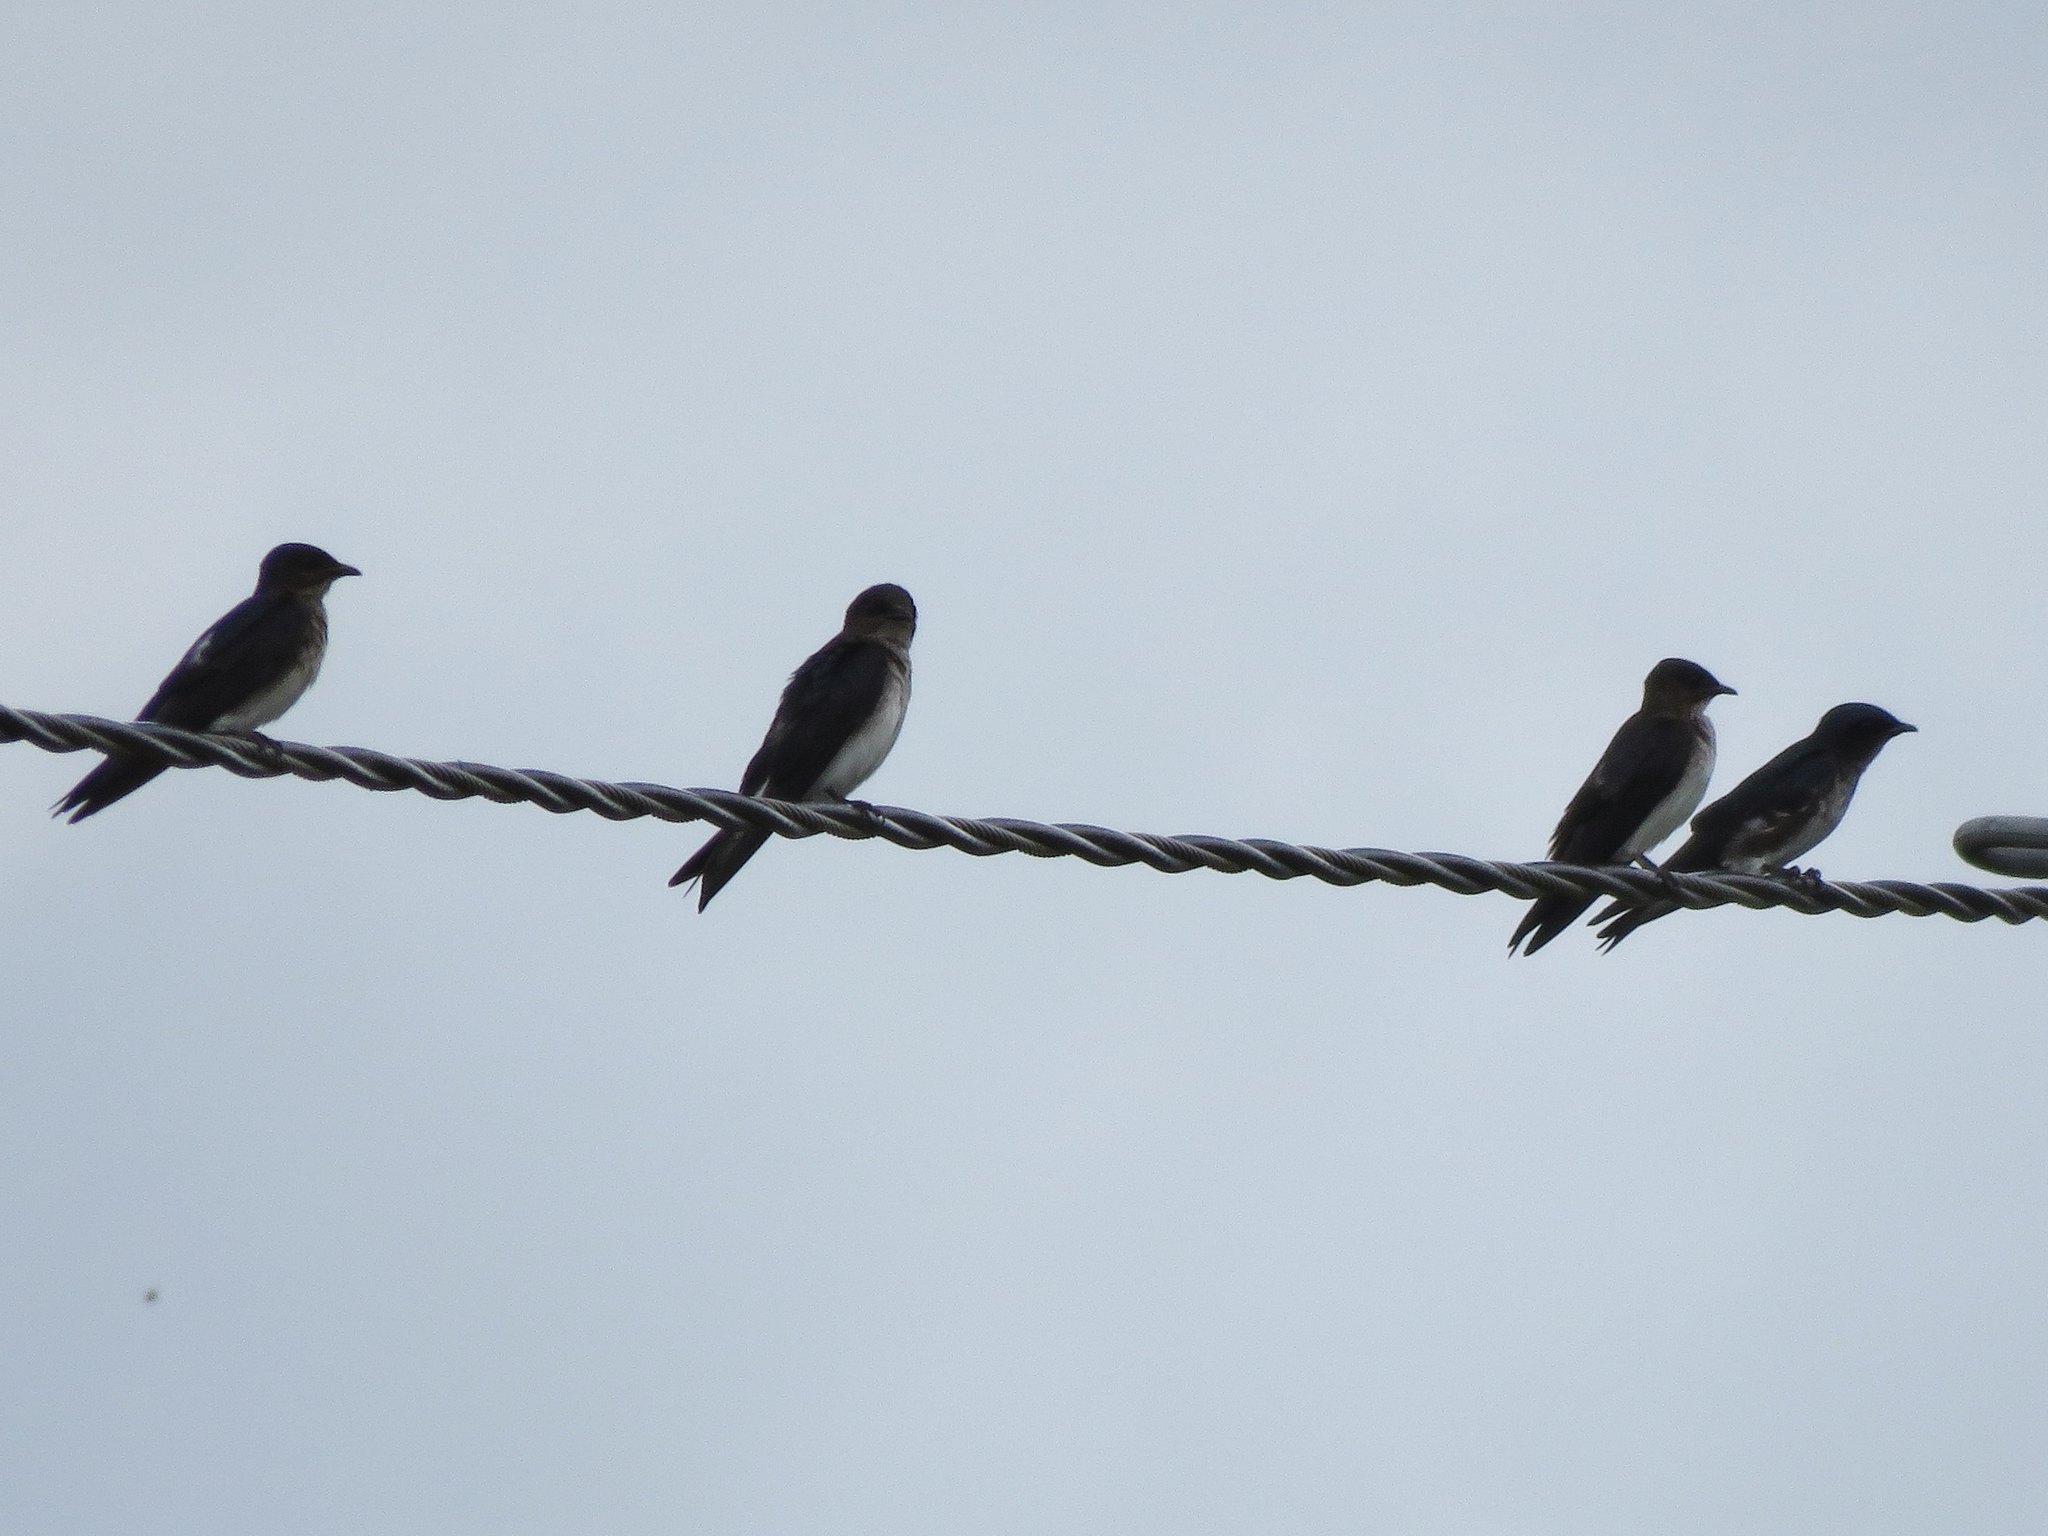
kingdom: Animalia
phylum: Chordata
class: Aves
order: Passeriformes
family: Hirundinidae
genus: Progne
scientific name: Progne chalybea
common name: Grey-breasted martin
